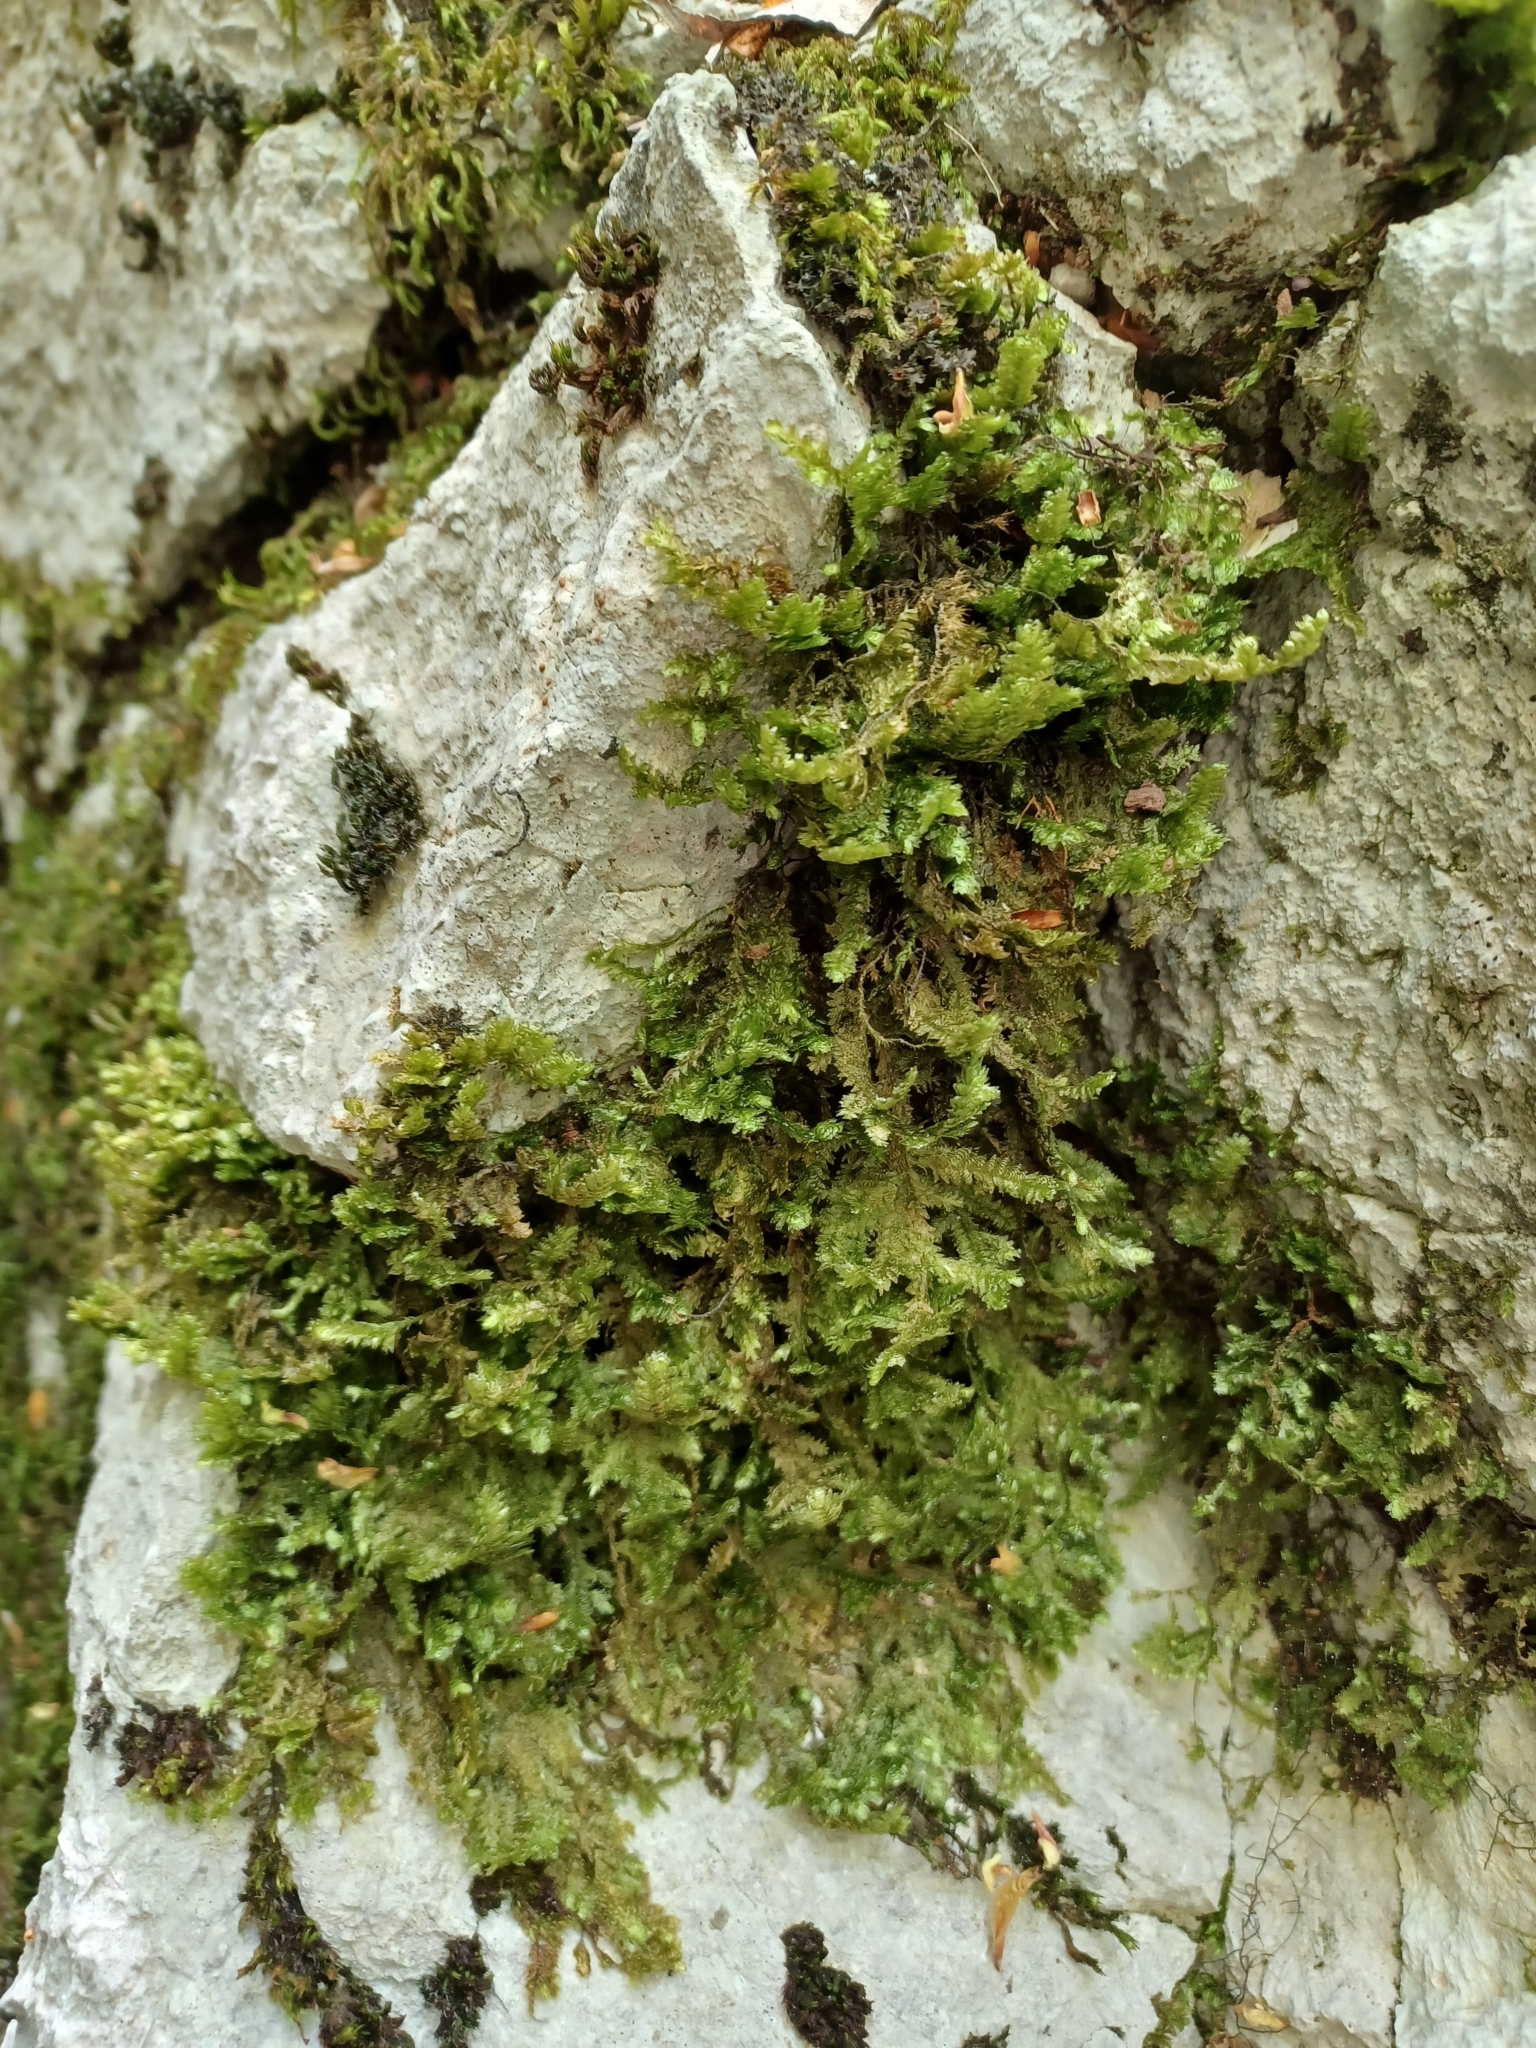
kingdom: Plantae
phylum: Bryophyta
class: Bryopsida
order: Hypnales
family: Neckeraceae
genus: Exsertotheca
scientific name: Exsertotheca crispa
